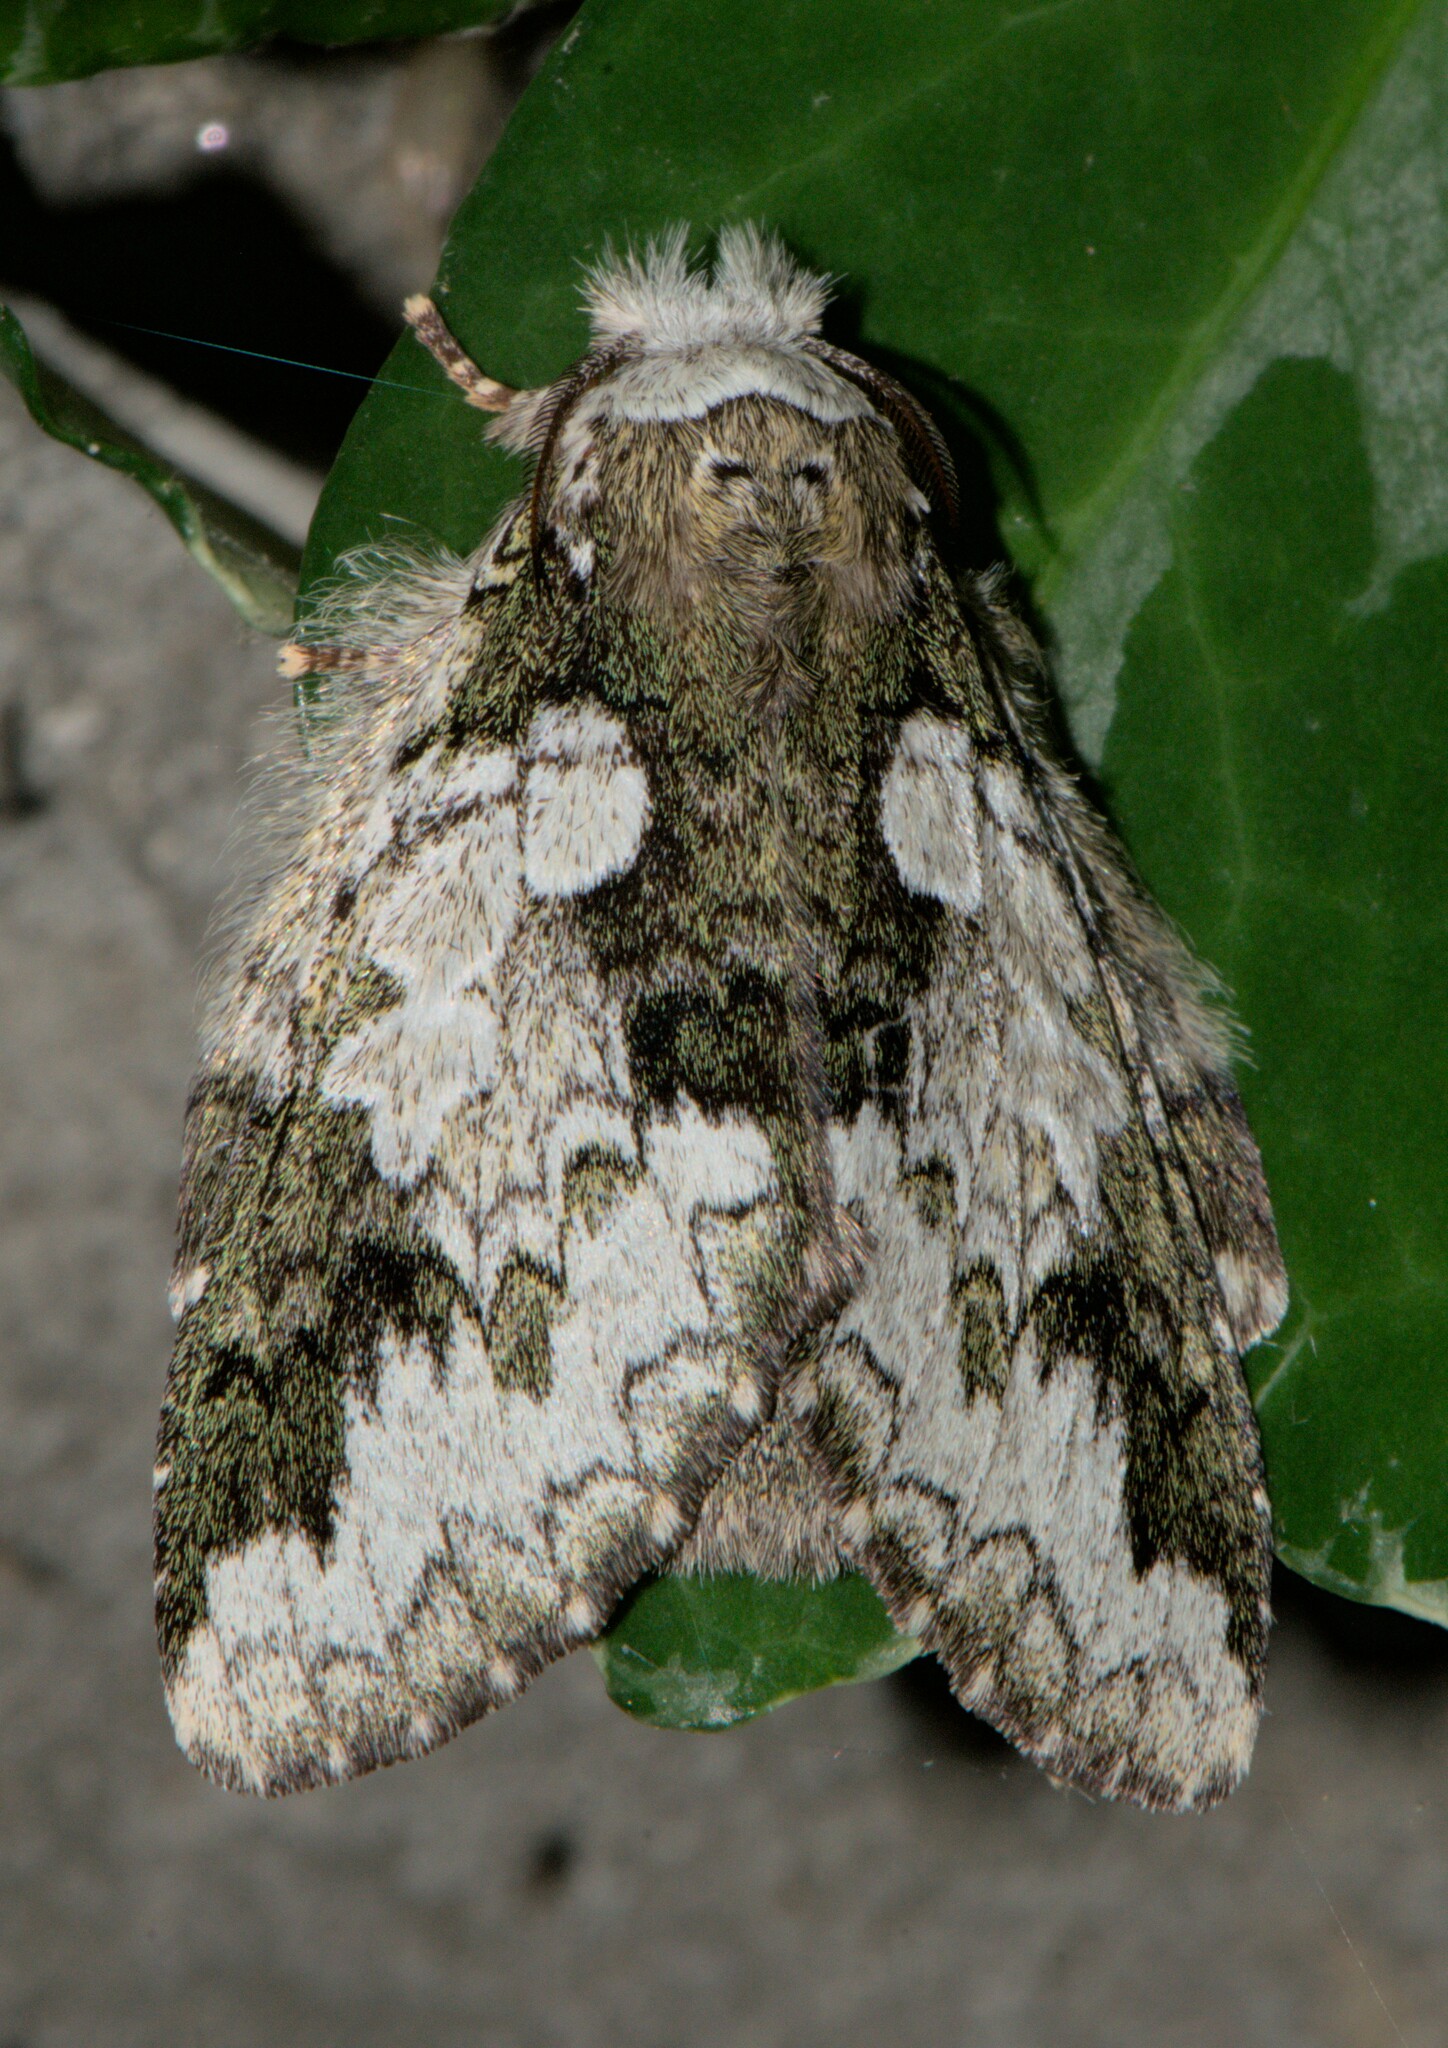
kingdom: Animalia
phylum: Arthropoda
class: Insecta
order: Lepidoptera
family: Notodontidae
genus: Syntypistis
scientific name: Syntypistis comatus
